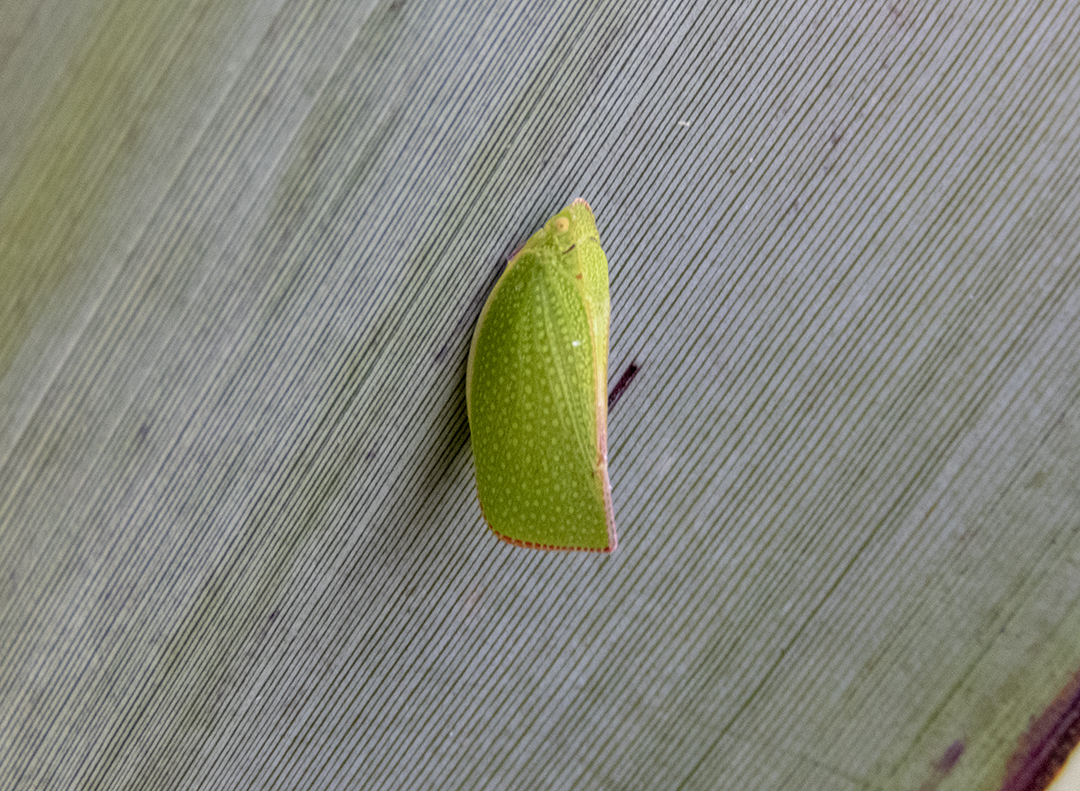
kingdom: Animalia
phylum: Arthropoda
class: Insecta
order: Hemiptera
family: Flatidae
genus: Siphanta
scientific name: Siphanta acuta
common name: Torpedo bug
